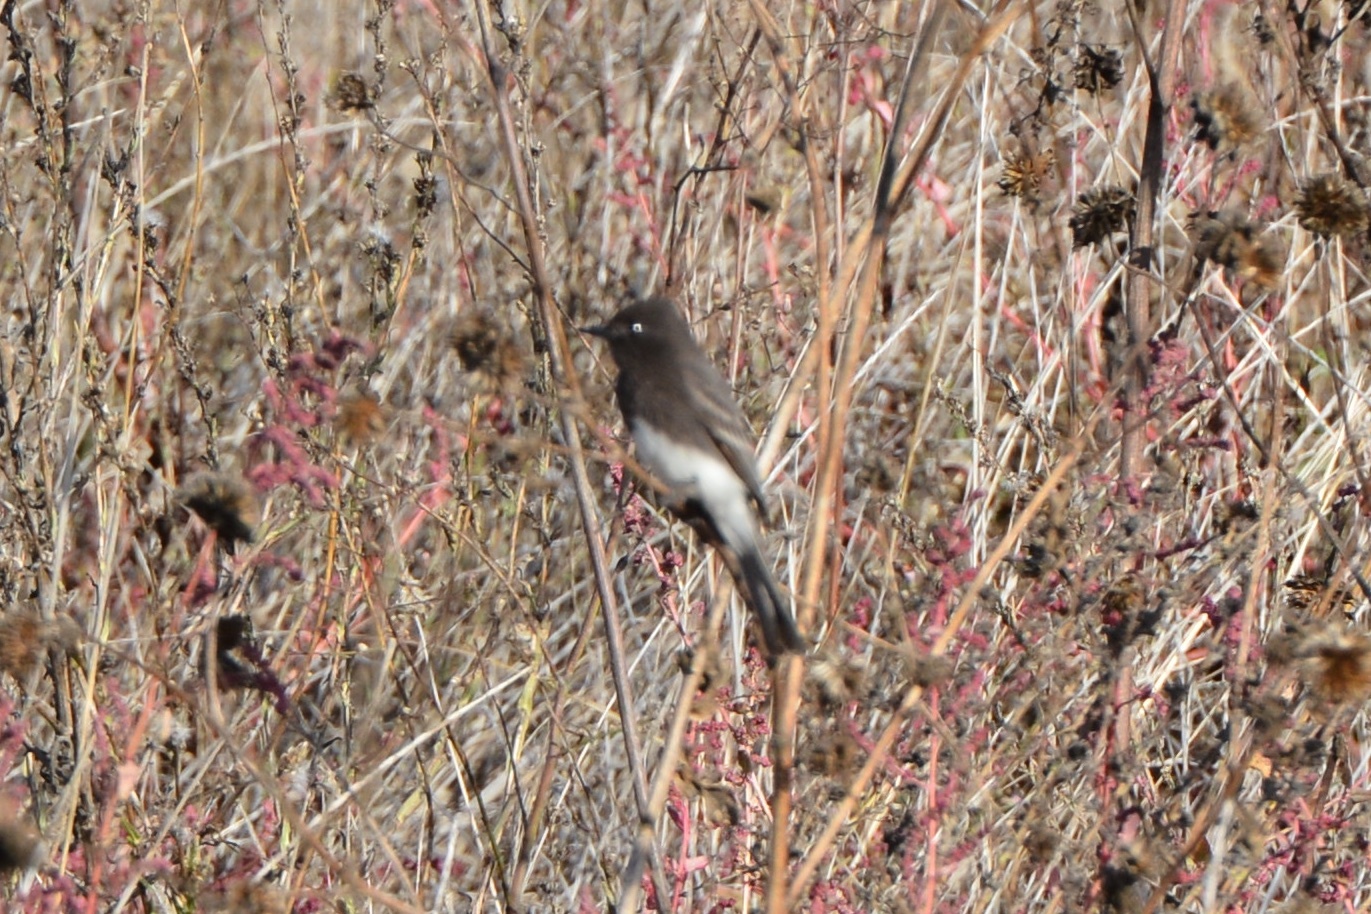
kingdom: Animalia
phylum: Chordata
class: Aves
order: Passeriformes
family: Tyrannidae
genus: Sayornis
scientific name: Sayornis nigricans
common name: Black phoebe
